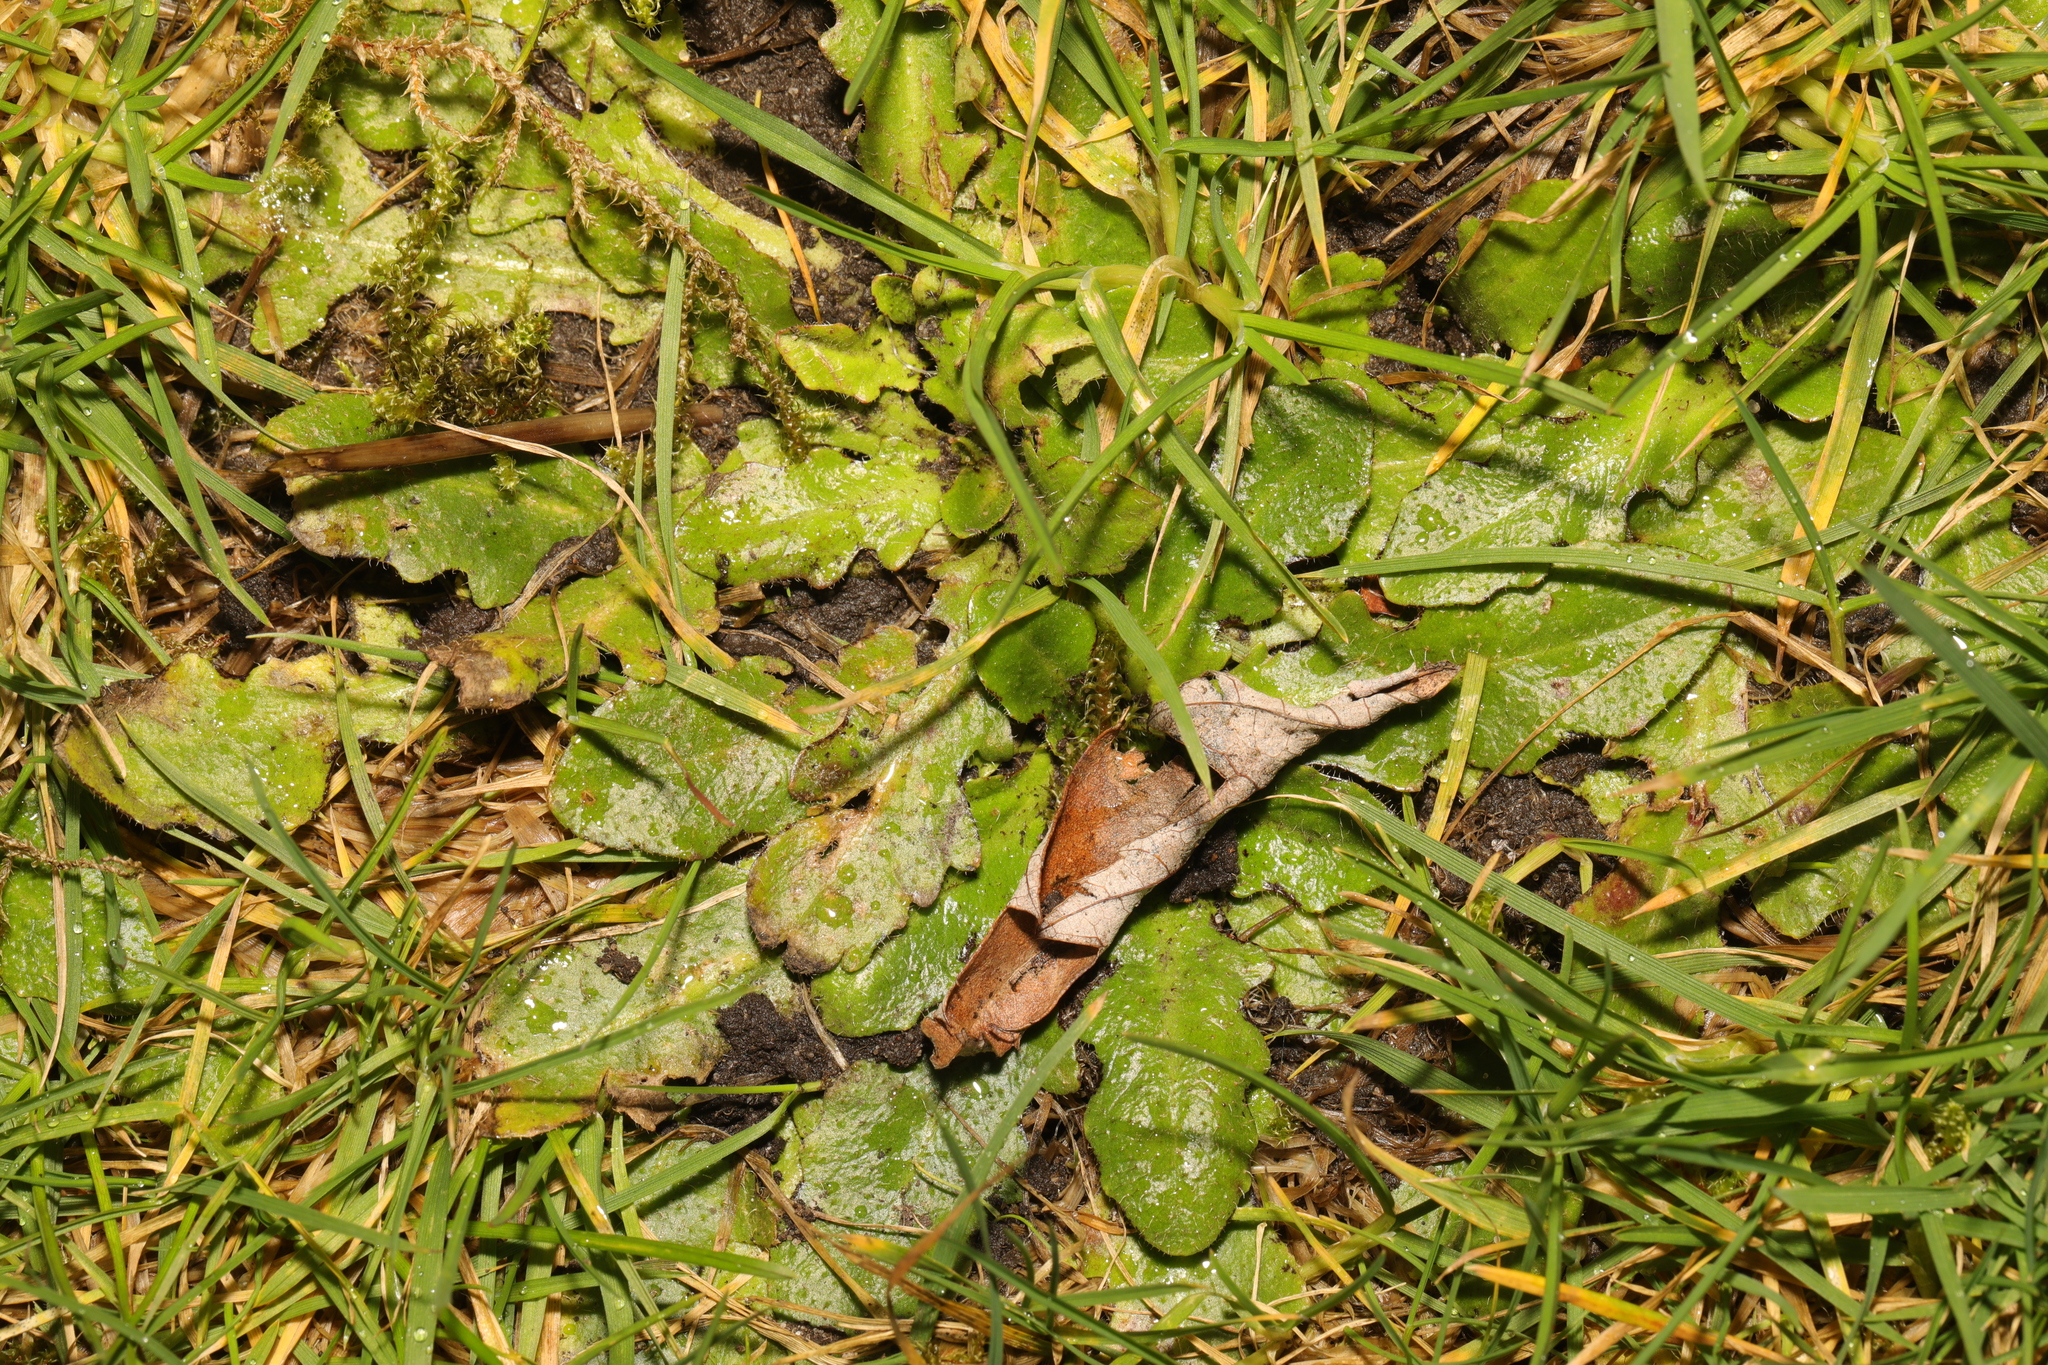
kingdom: Plantae
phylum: Tracheophyta
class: Magnoliopsida
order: Asterales
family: Asteraceae
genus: Hypochaeris
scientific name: Hypochaeris radicata
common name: Flatweed
